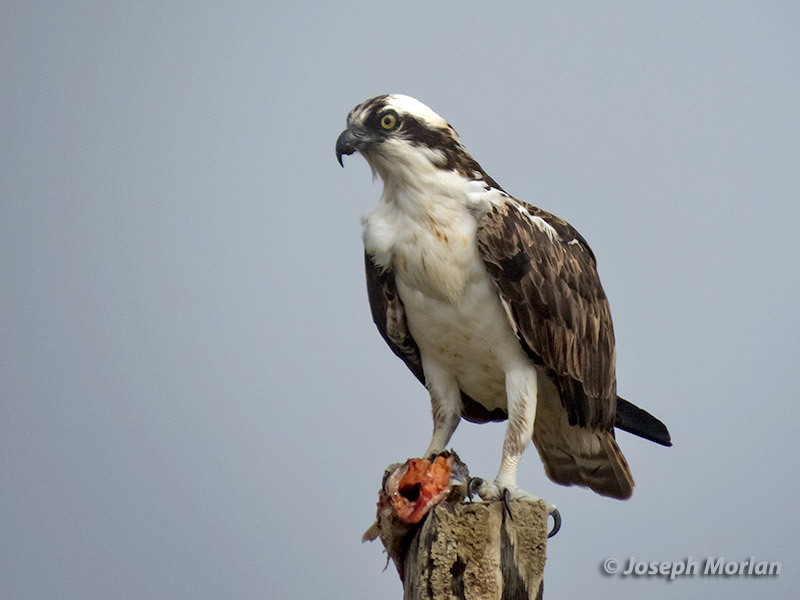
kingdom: Animalia
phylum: Chordata
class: Aves
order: Accipitriformes
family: Pandionidae
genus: Pandion
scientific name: Pandion haliaetus
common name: Osprey
